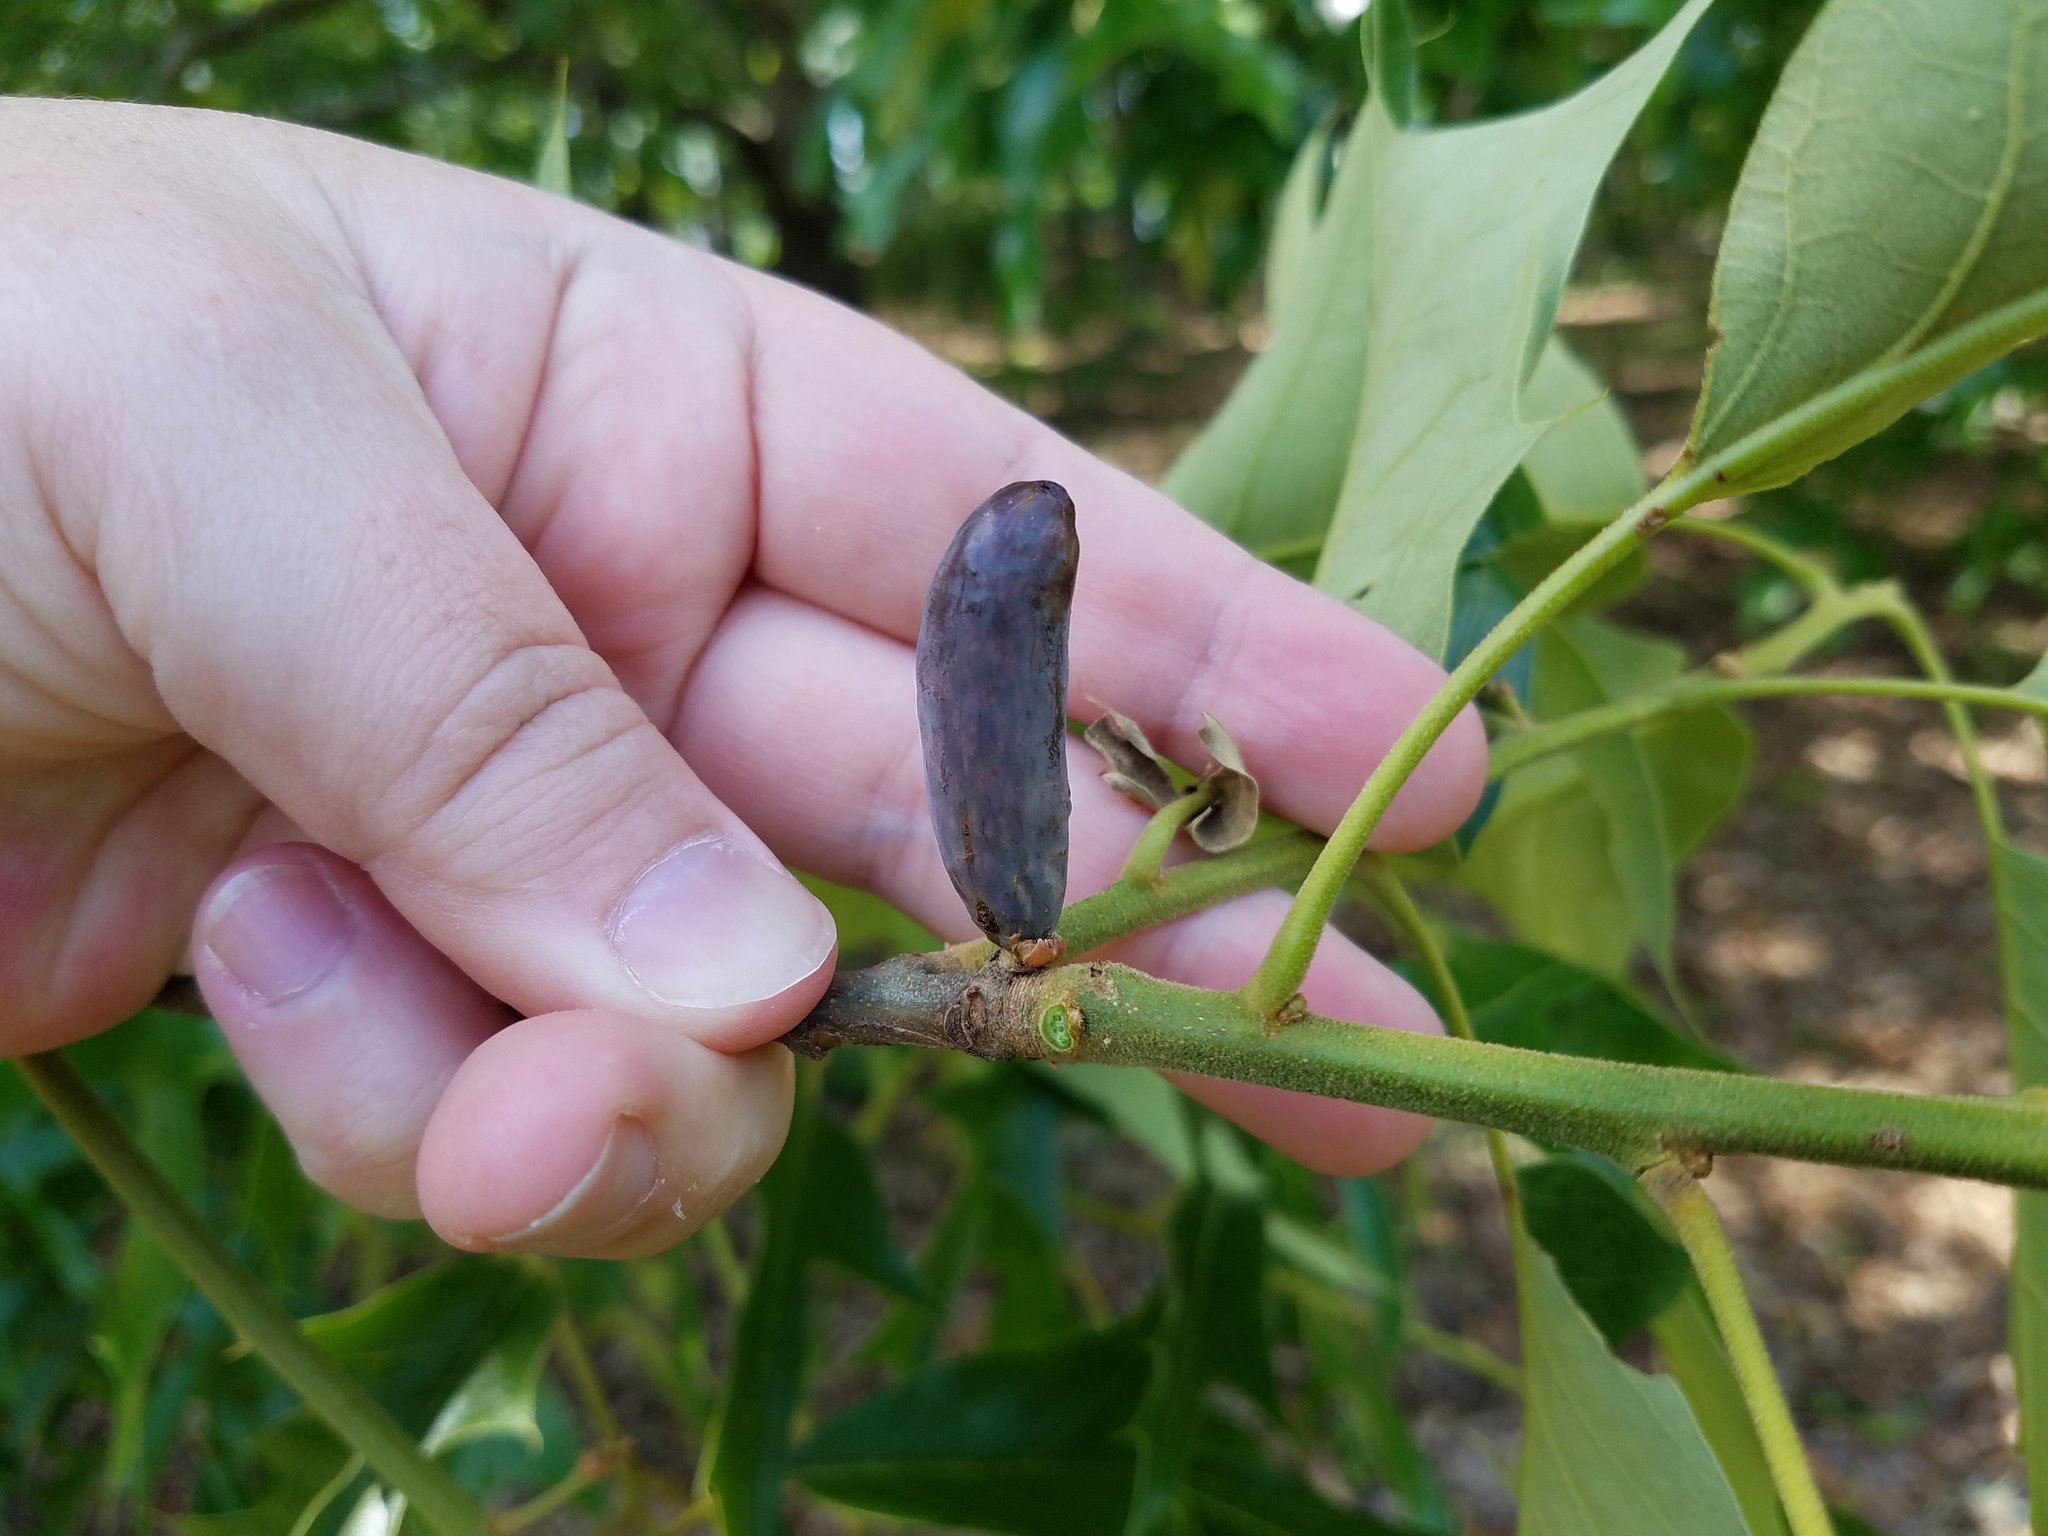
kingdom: Animalia
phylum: Arthropoda
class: Insecta
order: Hymenoptera
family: Cynipidae
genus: Amphibolips
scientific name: Amphibolips
